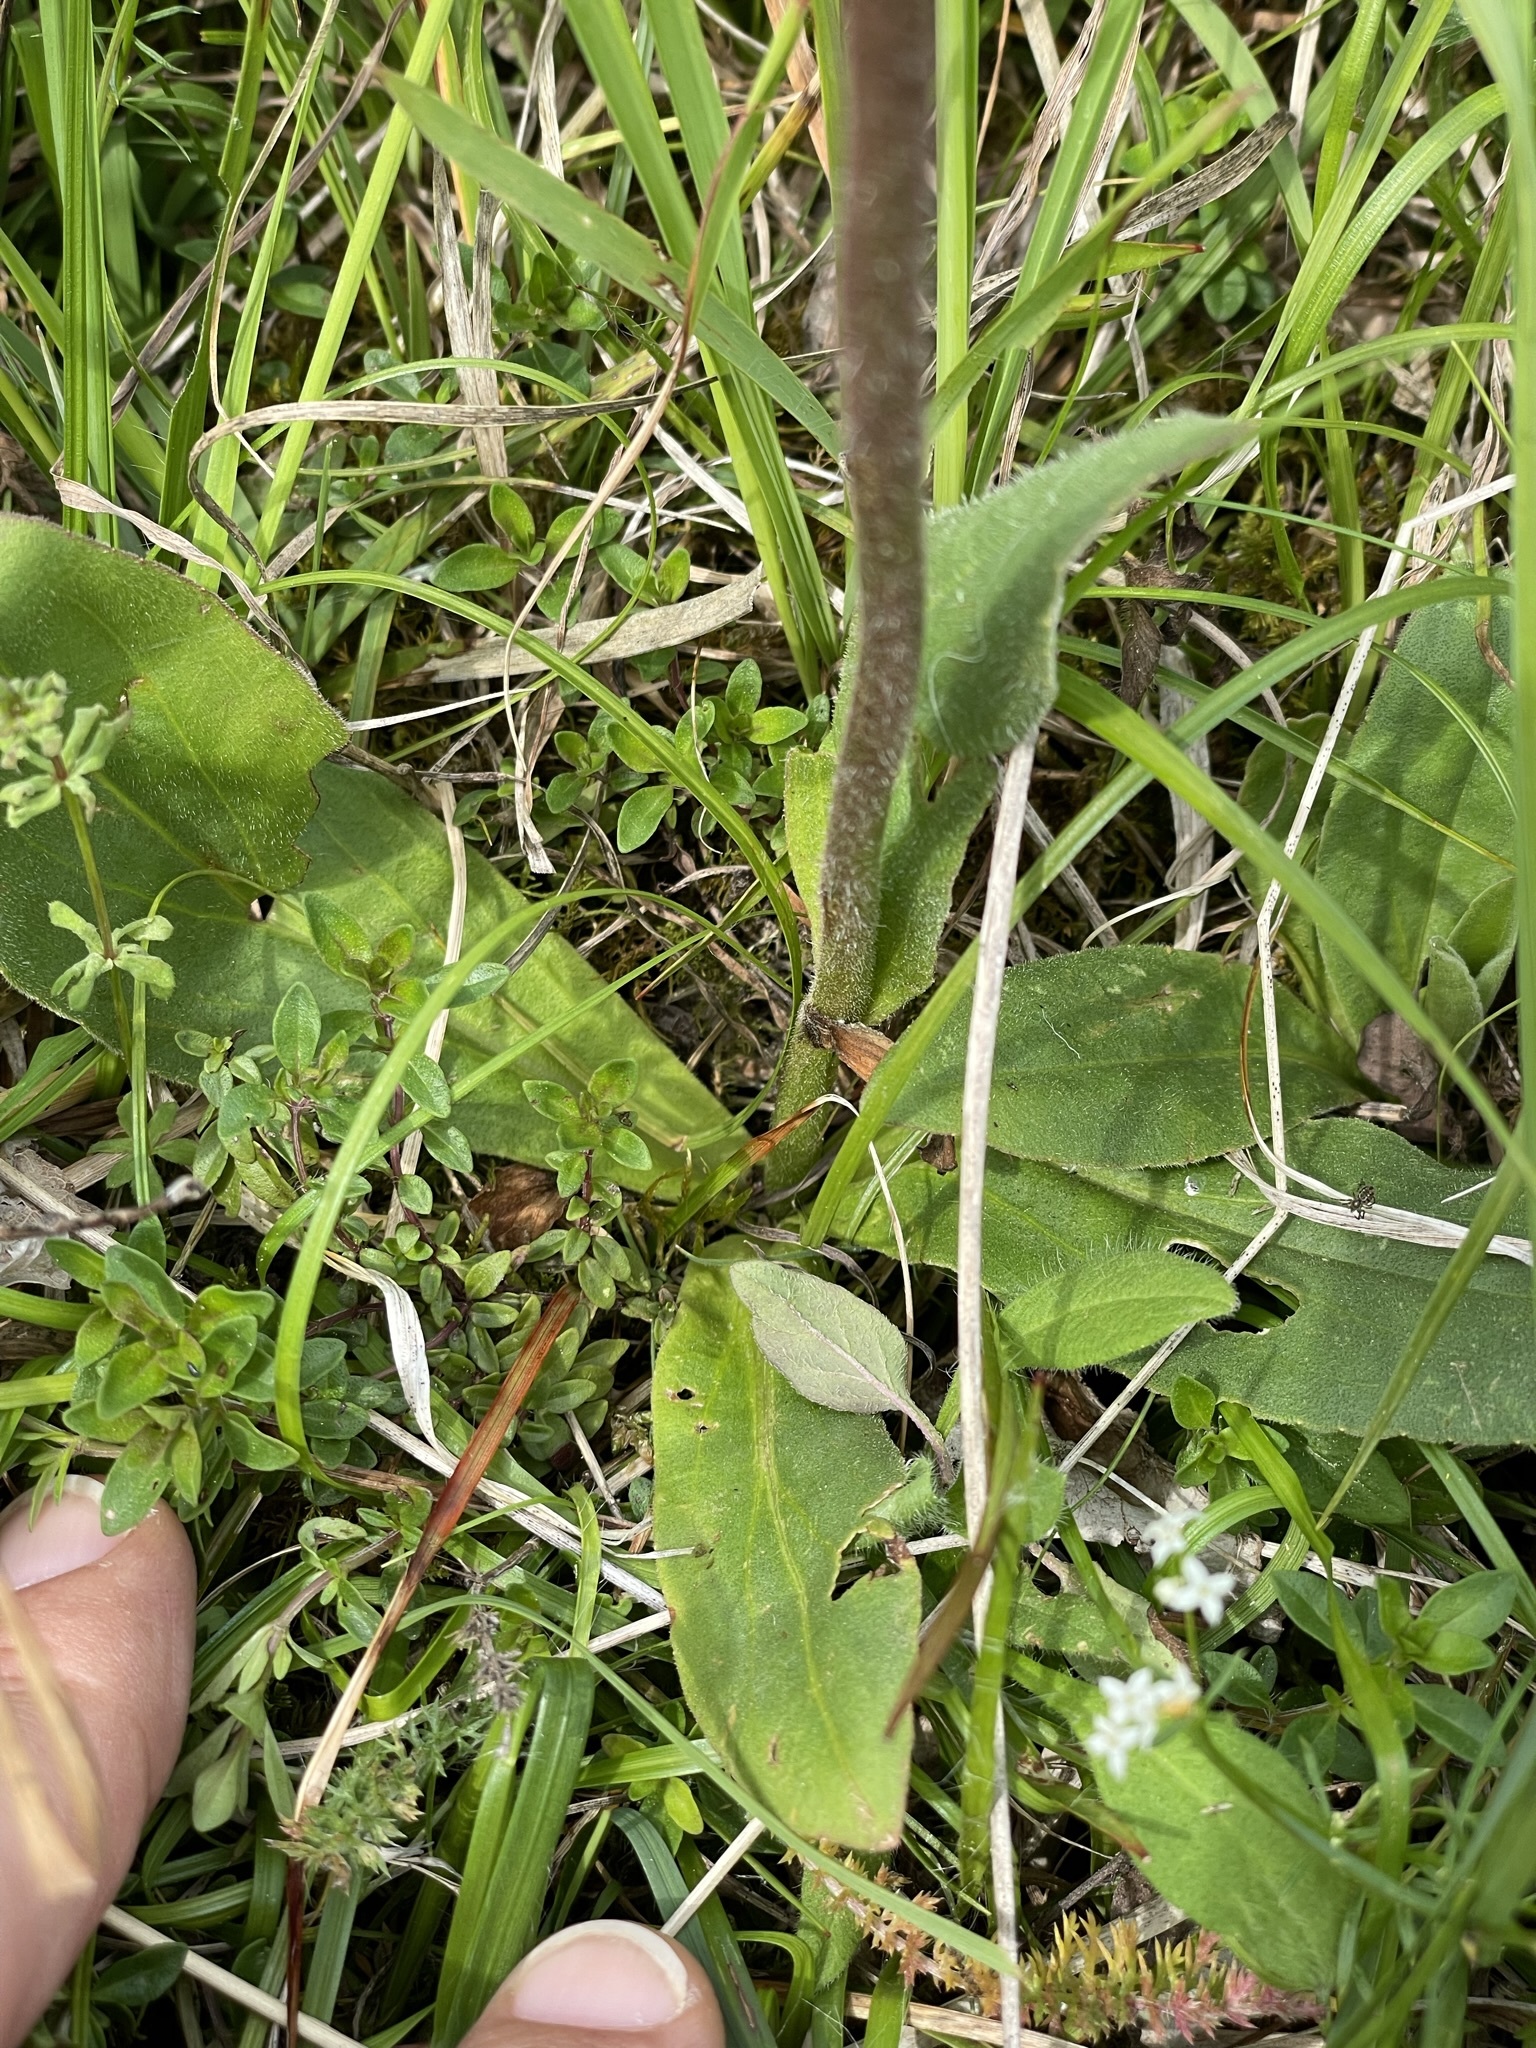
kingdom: Plantae
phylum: Tracheophyta
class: Magnoliopsida
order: Asterales
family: Asteraceae
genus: Arnica
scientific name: Arnica montana
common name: Leopard's bane
